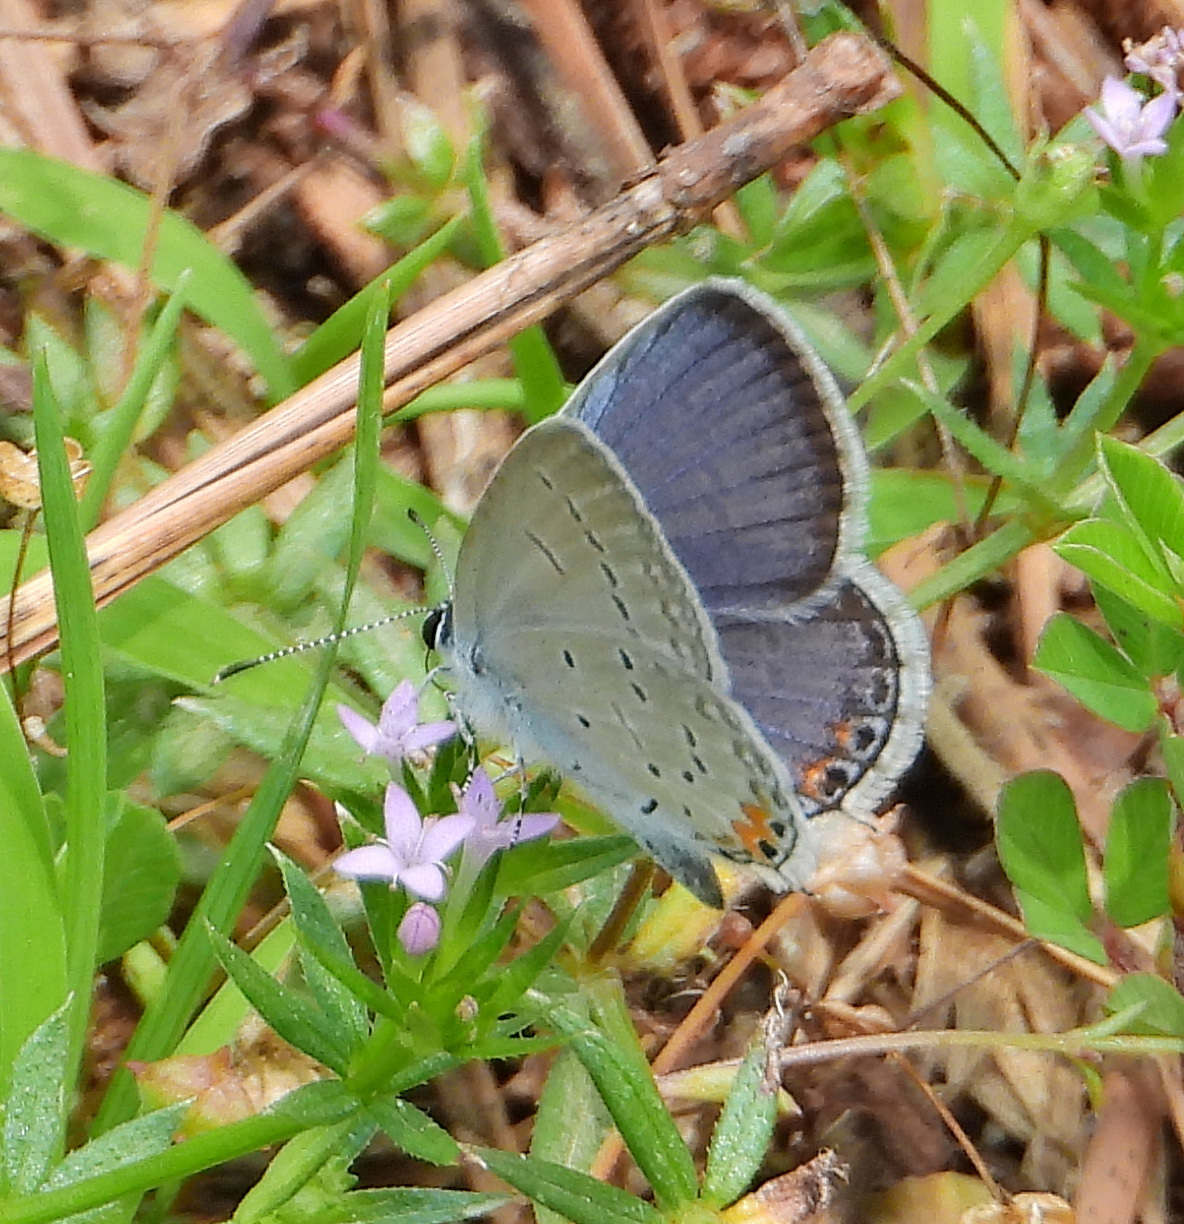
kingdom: Animalia
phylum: Arthropoda
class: Insecta
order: Lepidoptera
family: Lycaenidae
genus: Elkalyce
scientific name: Elkalyce comyntas
